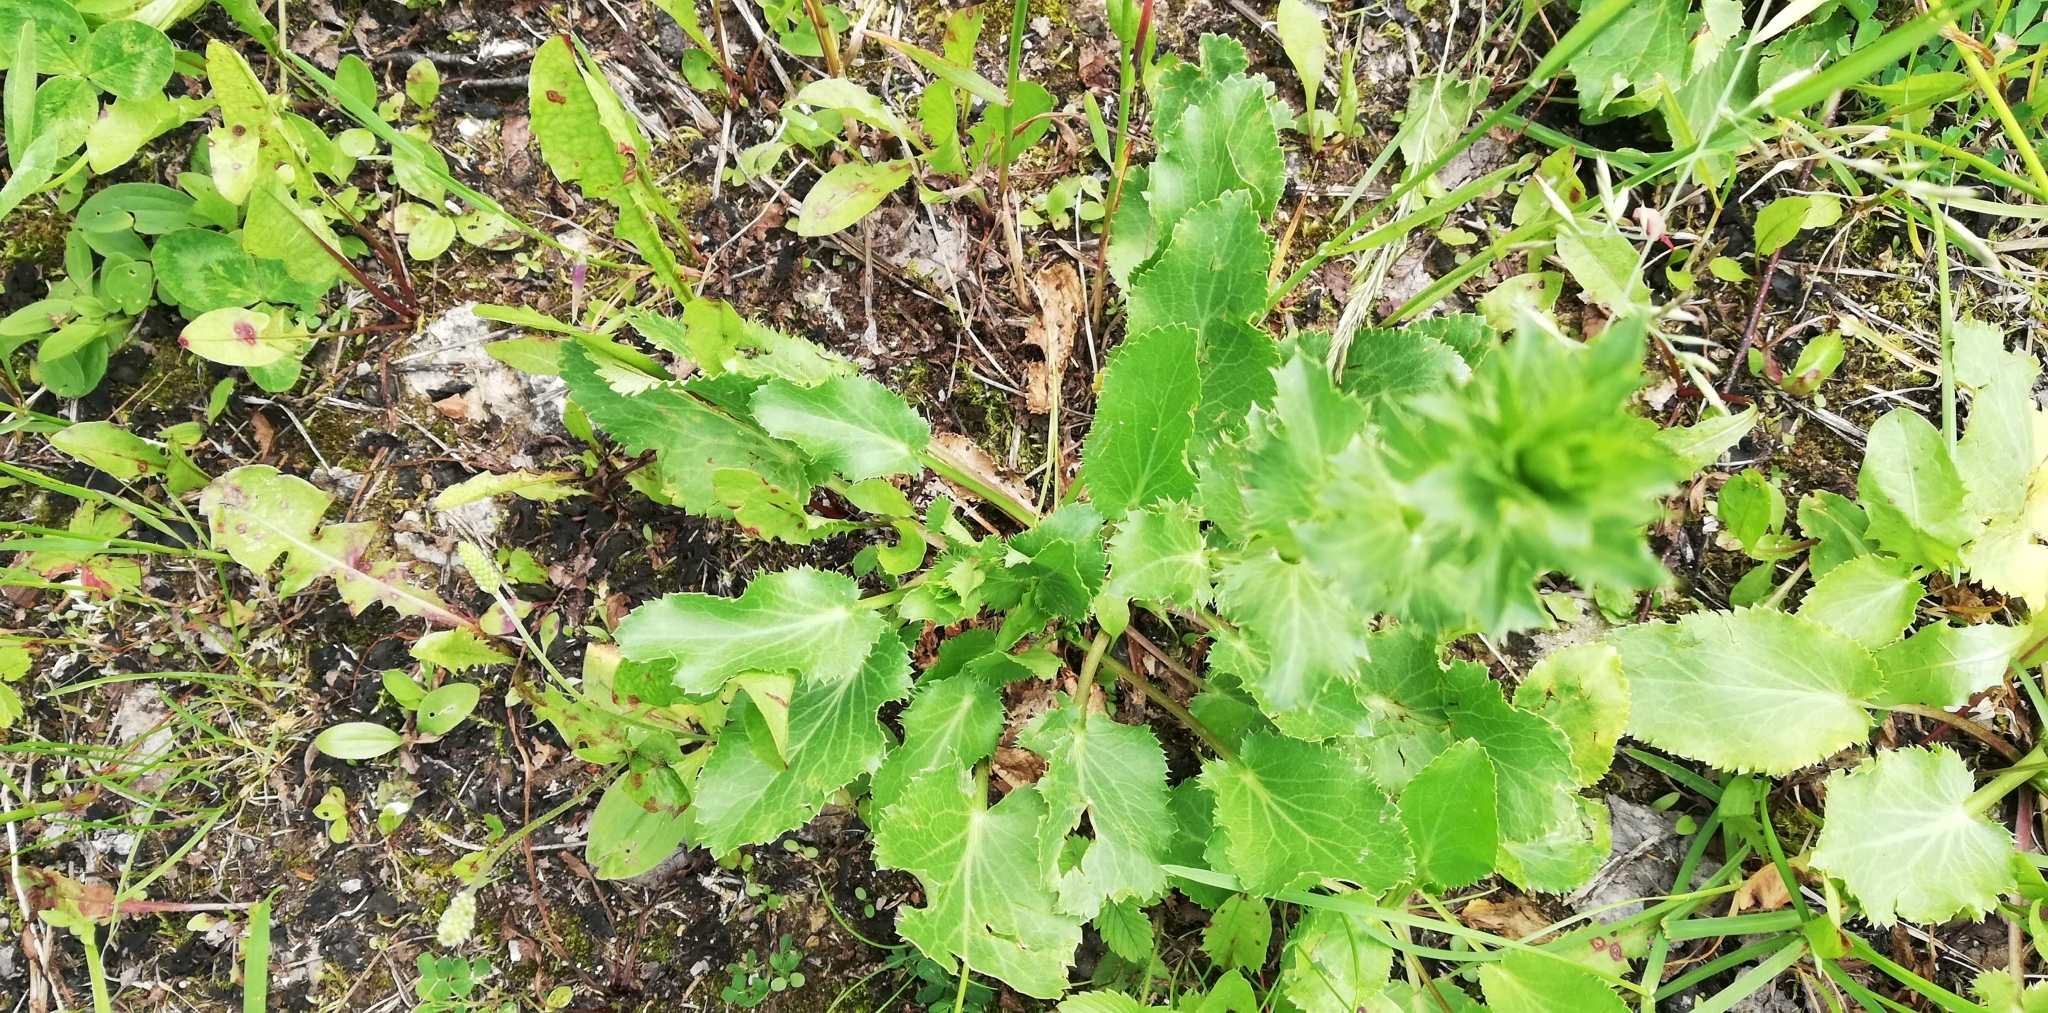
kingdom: Plantae
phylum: Tracheophyta
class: Magnoliopsida
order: Apiales
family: Apiaceae
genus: Eryngium
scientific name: Eryngium planum
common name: Blue eryngo
